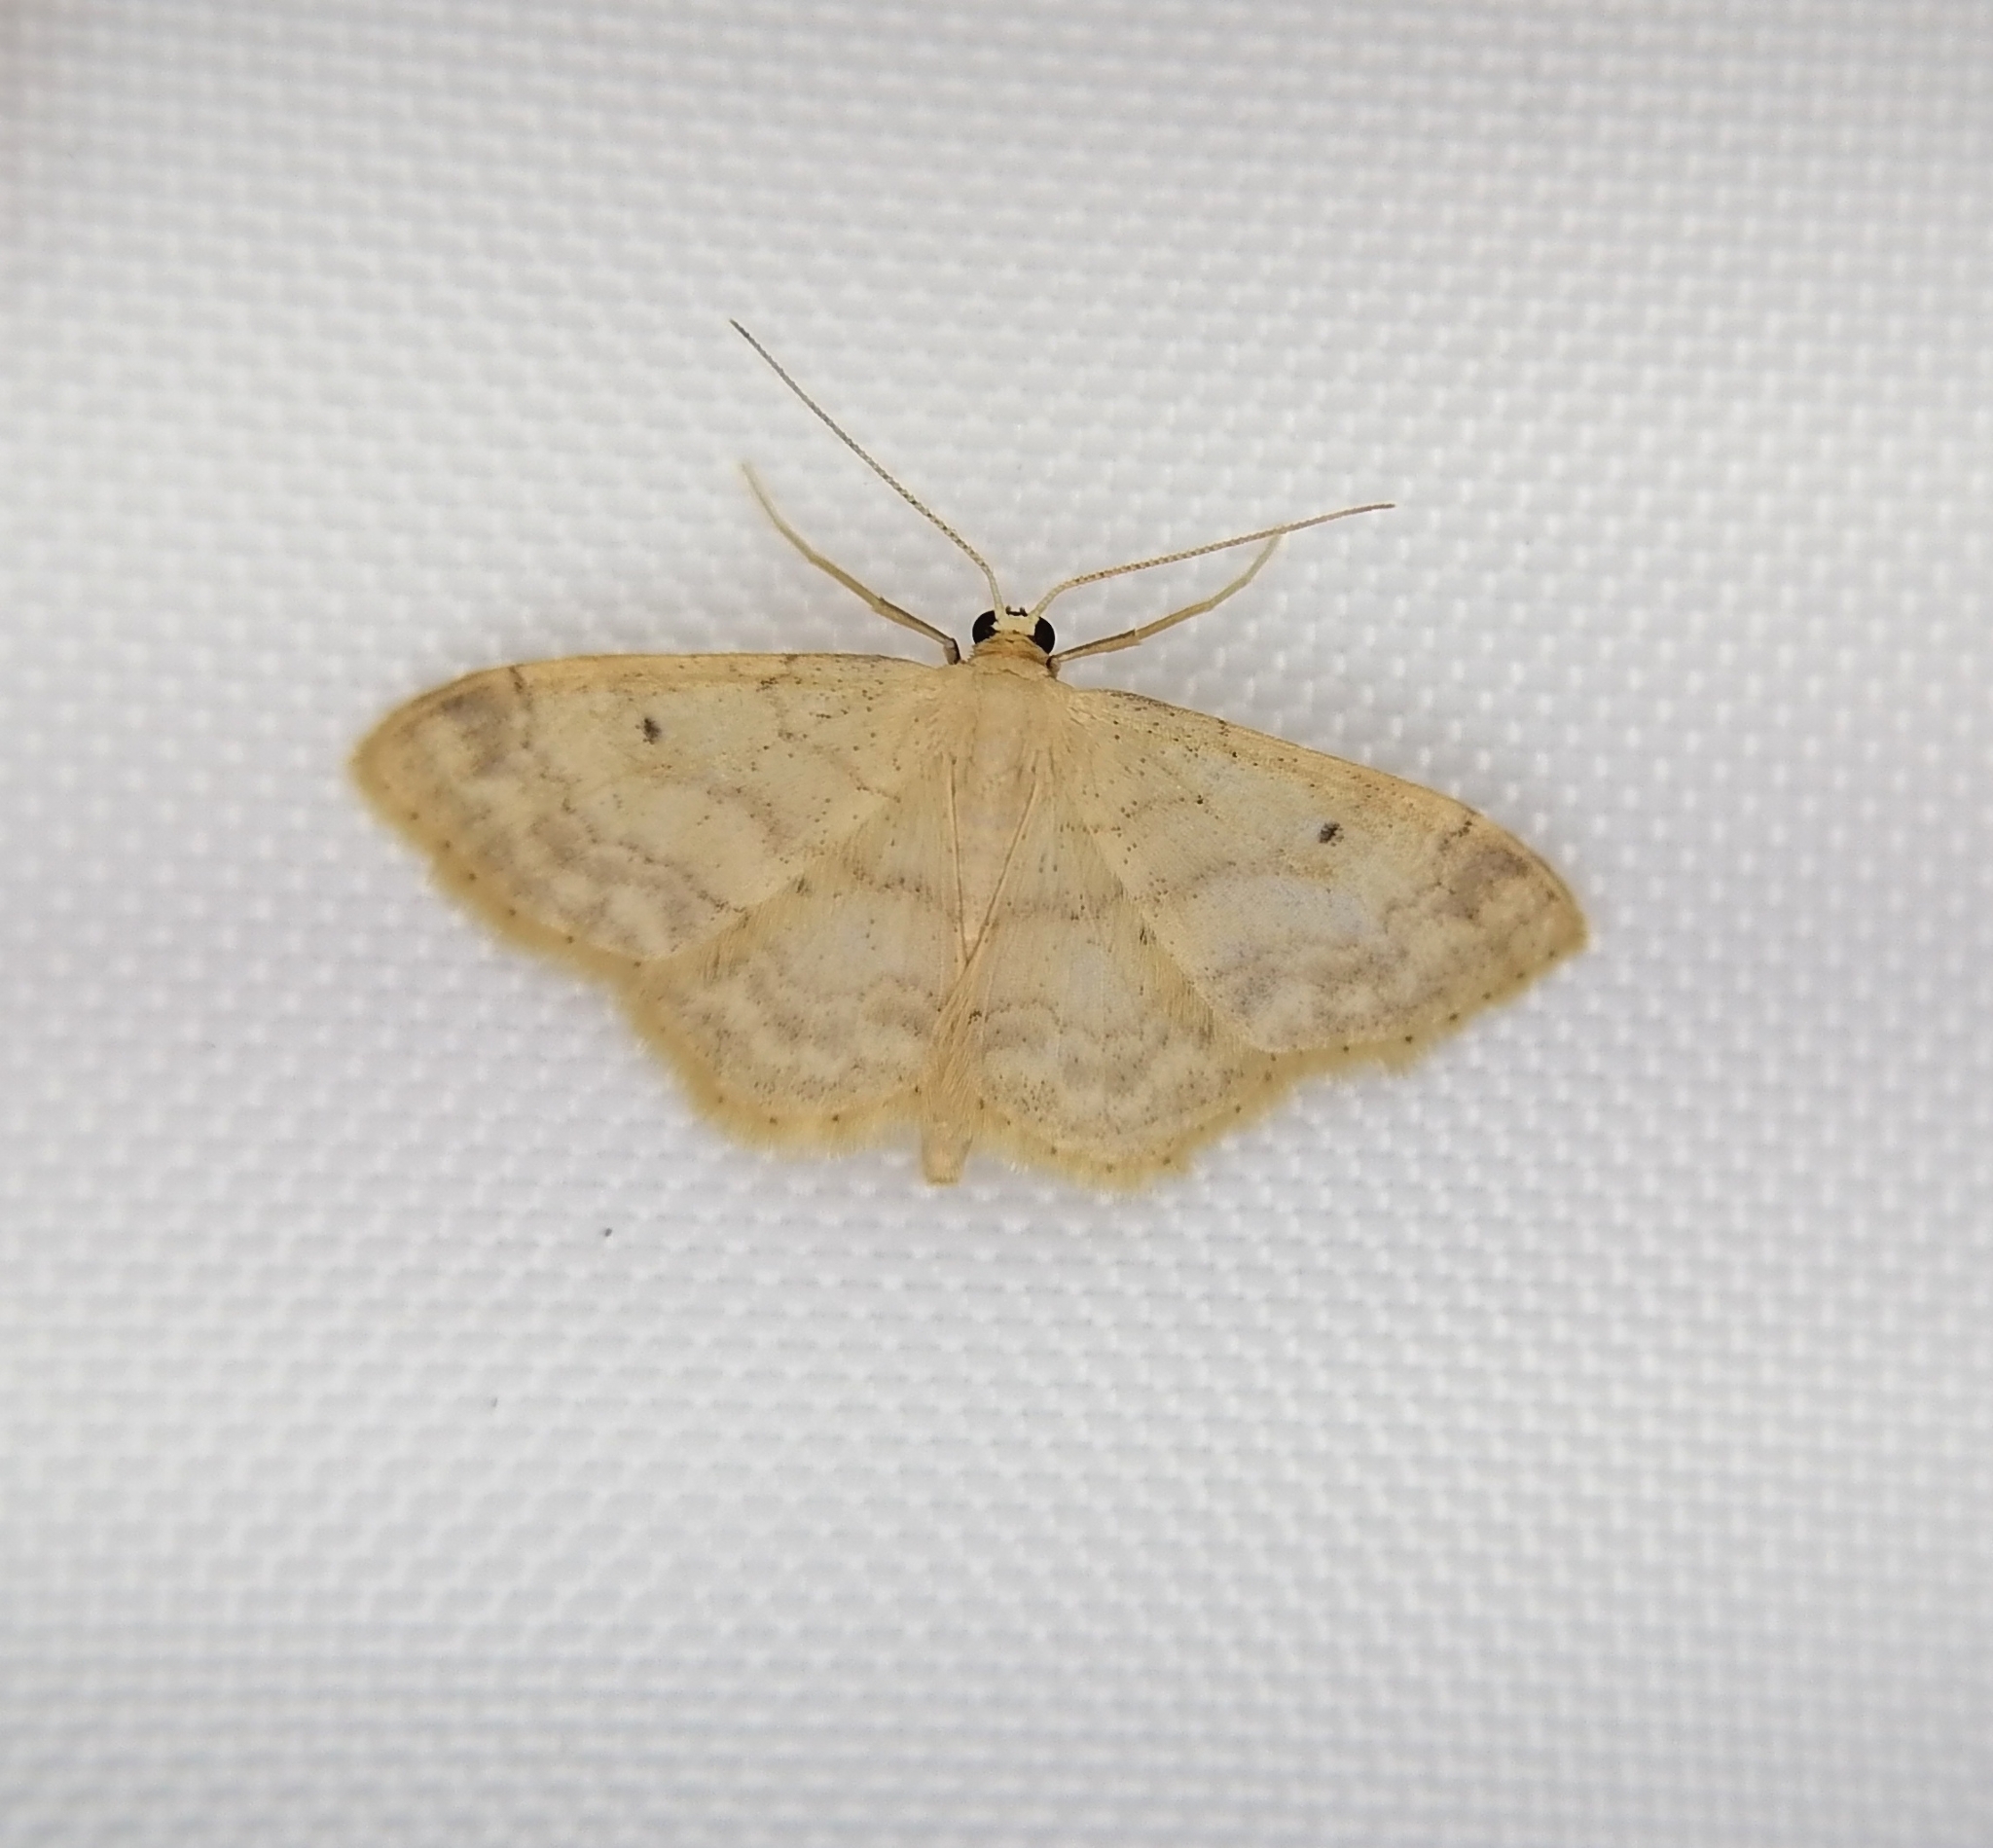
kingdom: Animalia
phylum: Arthropoda
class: Insecta
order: Lepidoptera
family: Geometridae
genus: Idaea
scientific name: Idaea biselata
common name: Small fan-footed wave
